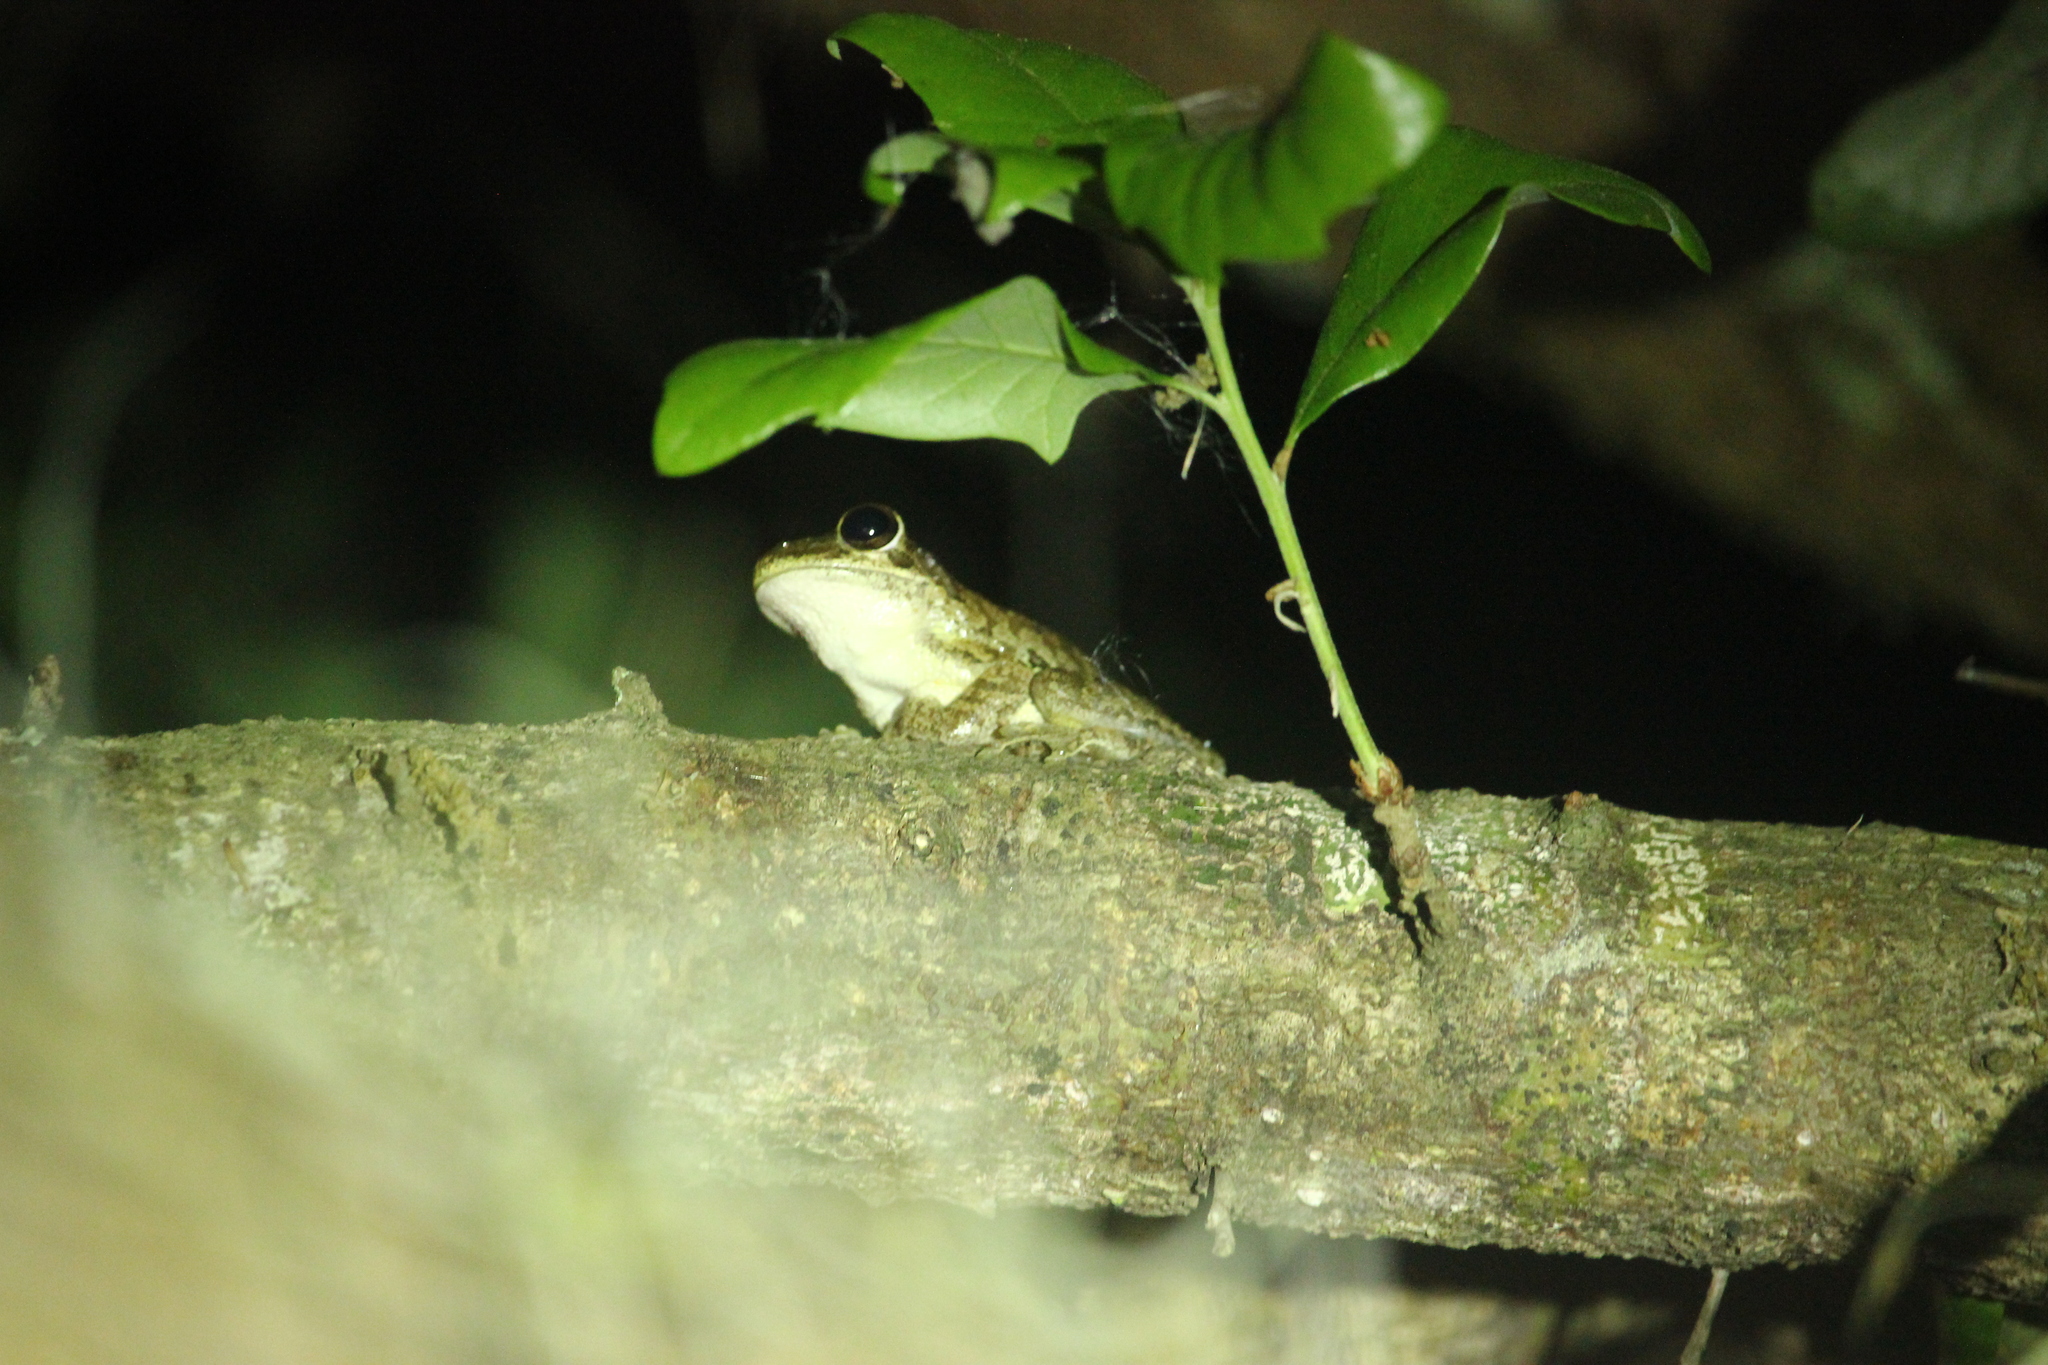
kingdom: Animalia
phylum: Chordata
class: Amphibia
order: Anura
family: Hylidae
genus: Osteopilus
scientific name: Osteopilus septentrionalis
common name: Cuban treefrog
